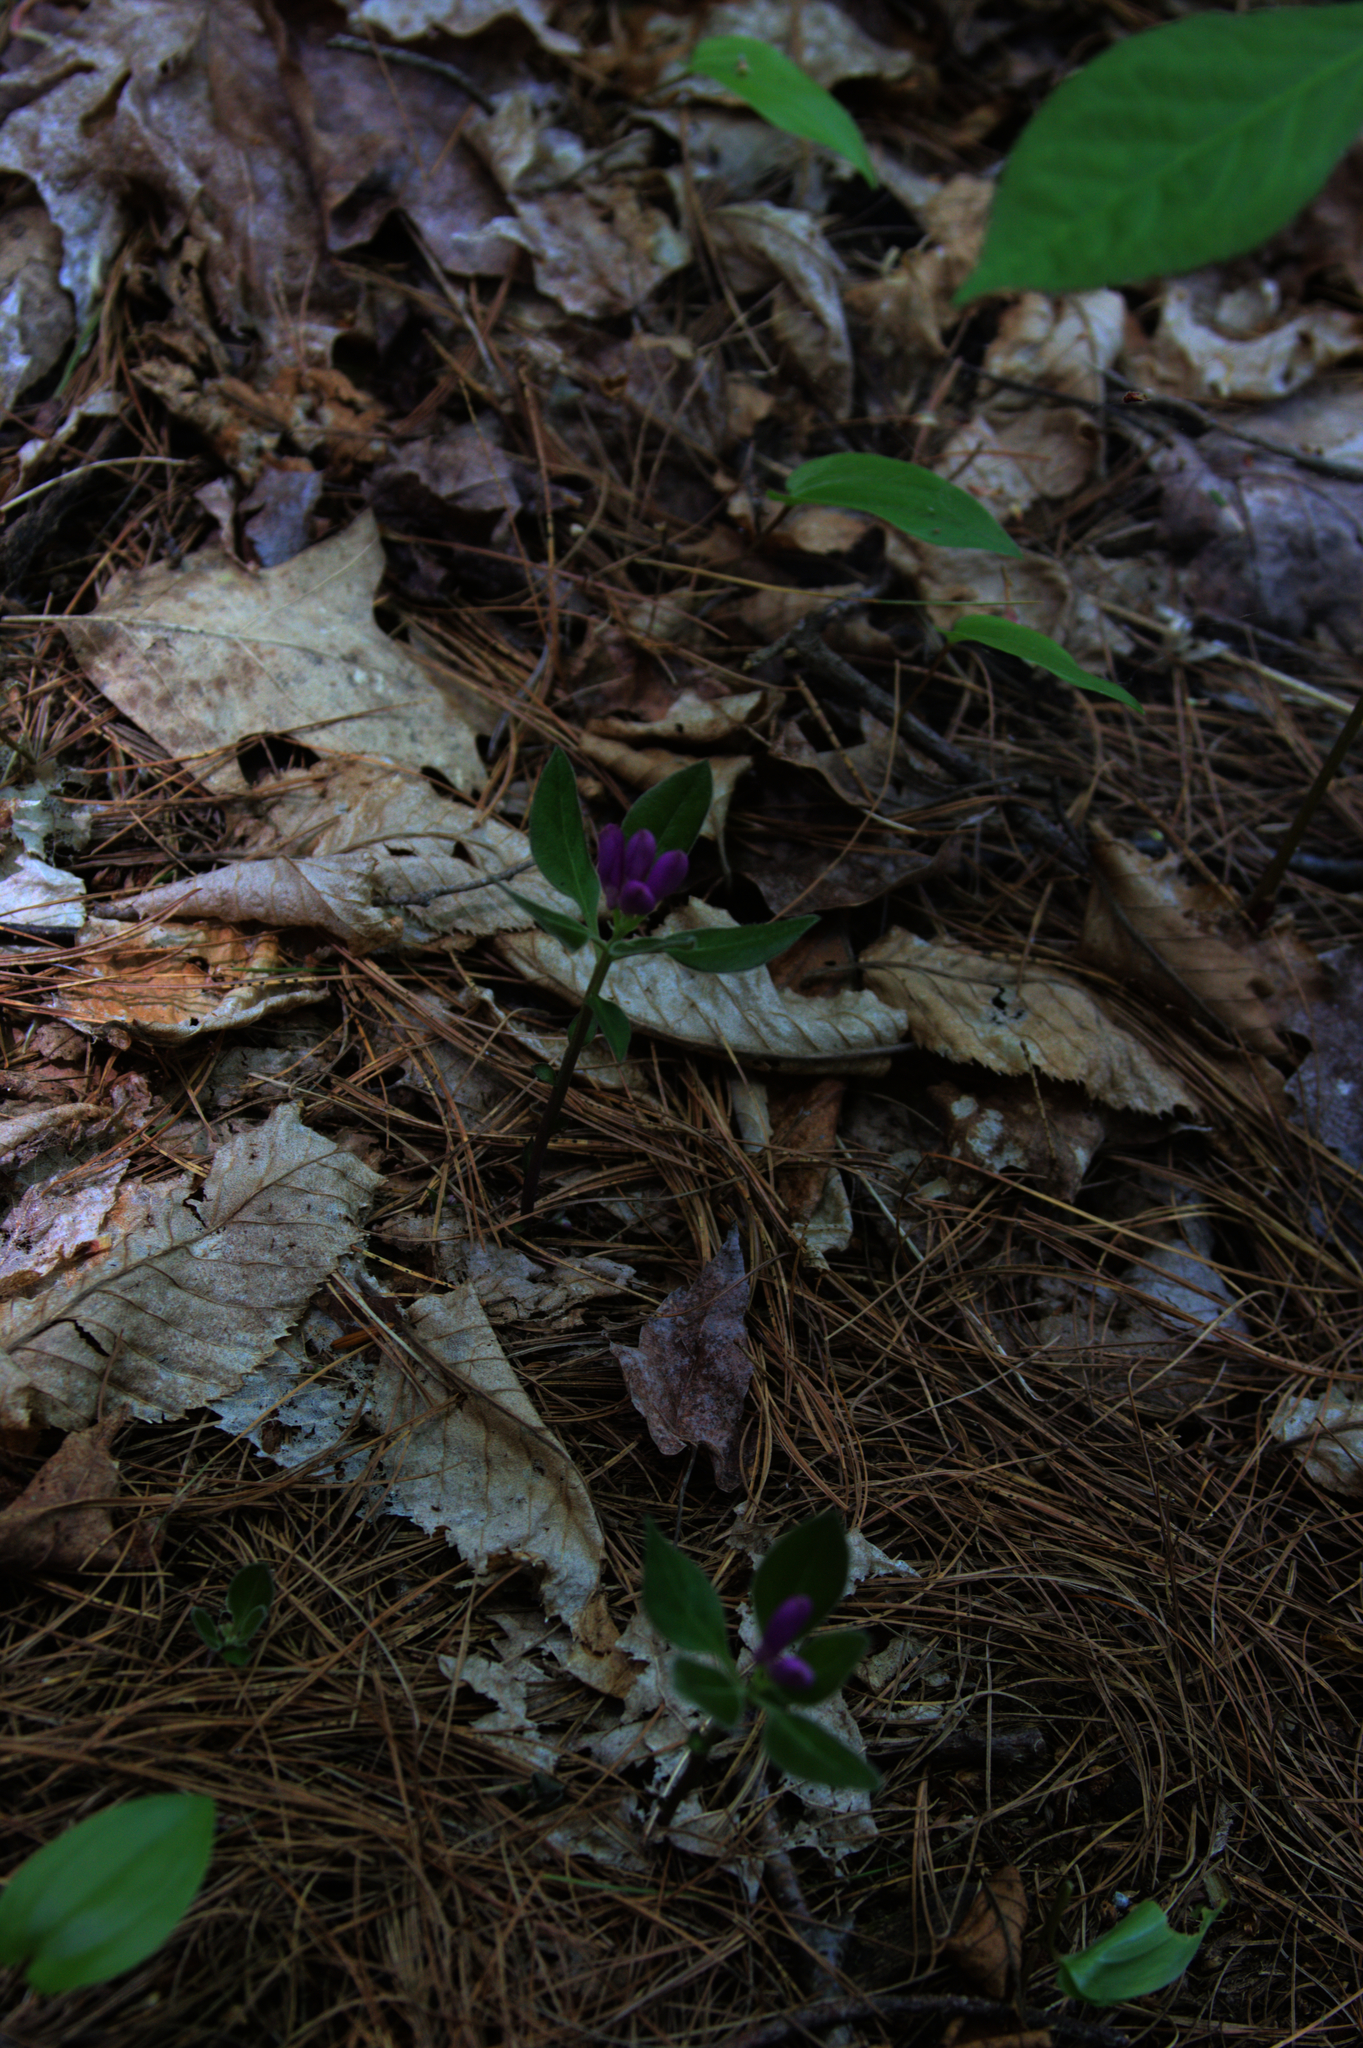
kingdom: Plantae
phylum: Tracheophyta
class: Magnoliopsida
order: Fabales
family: Polygalaceae
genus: Polygaloides
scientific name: Polygaloides paucifolia
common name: Bird-on-the-wing
